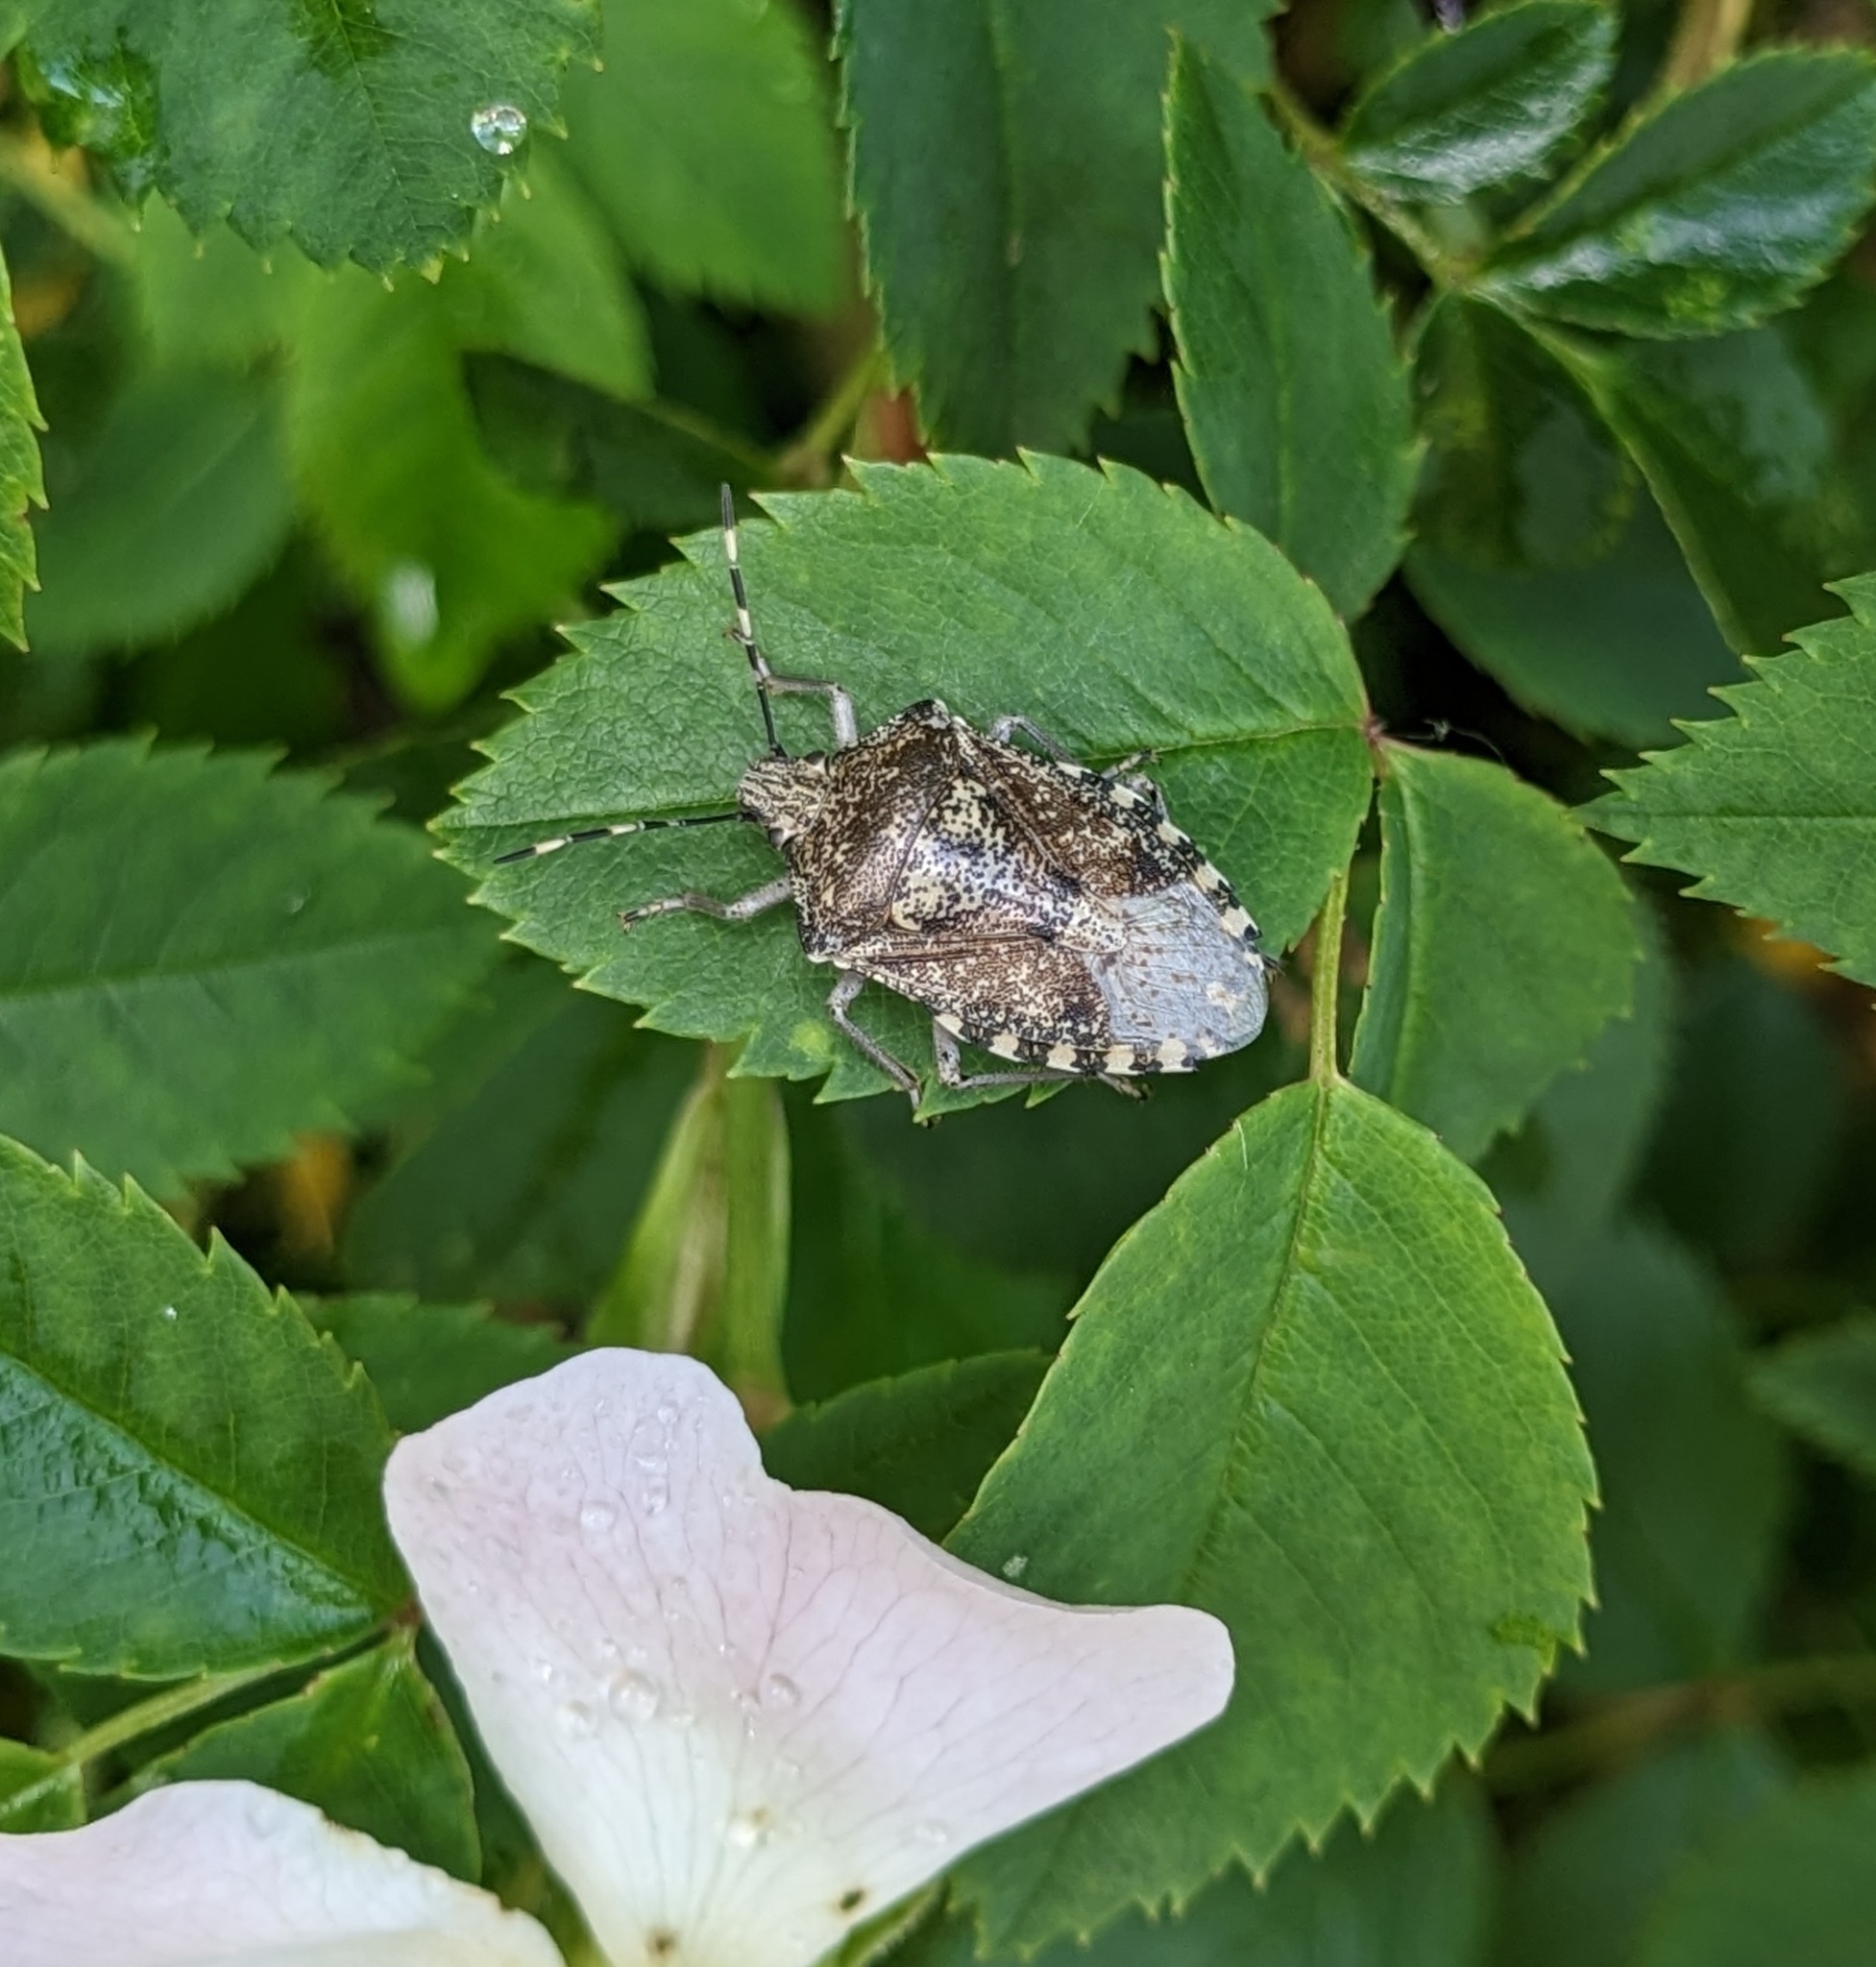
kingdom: Animalia
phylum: Arthropoda
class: Insecta
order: Hemiptera
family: Pentatomidae
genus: Rhaphigaster
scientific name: Rhaphigaster nebulosa
